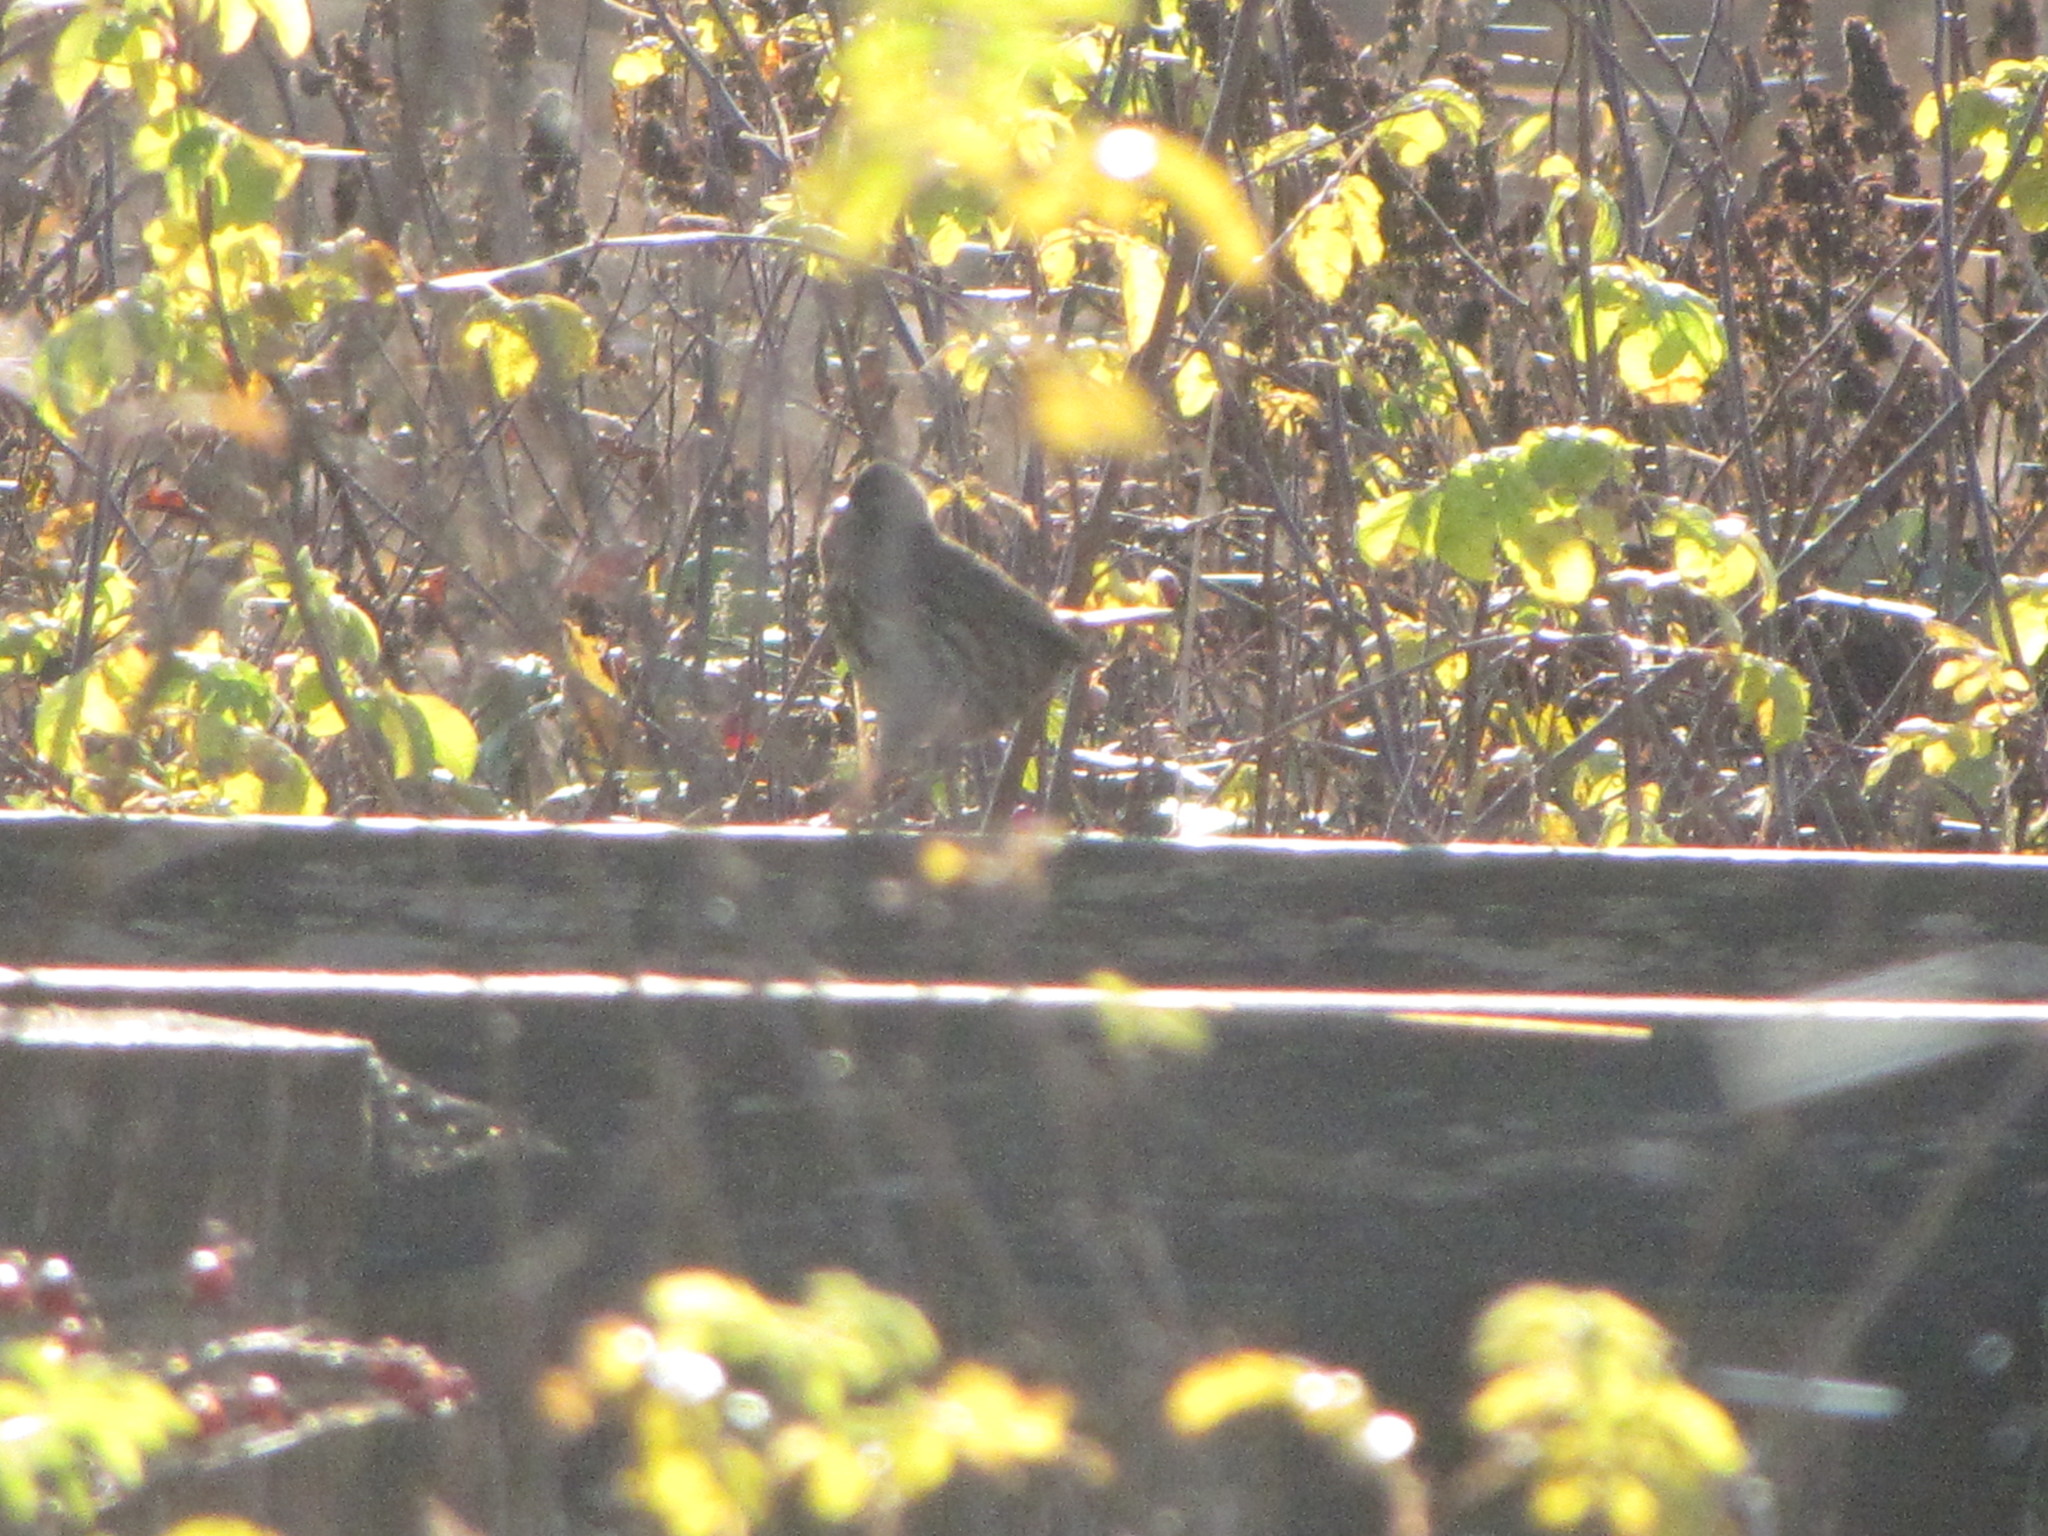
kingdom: Animalia
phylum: Chordata
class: Aves
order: Passeriformes
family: Passerellidae
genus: Melospiza
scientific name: Melospiza melodia
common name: Song sparrow
